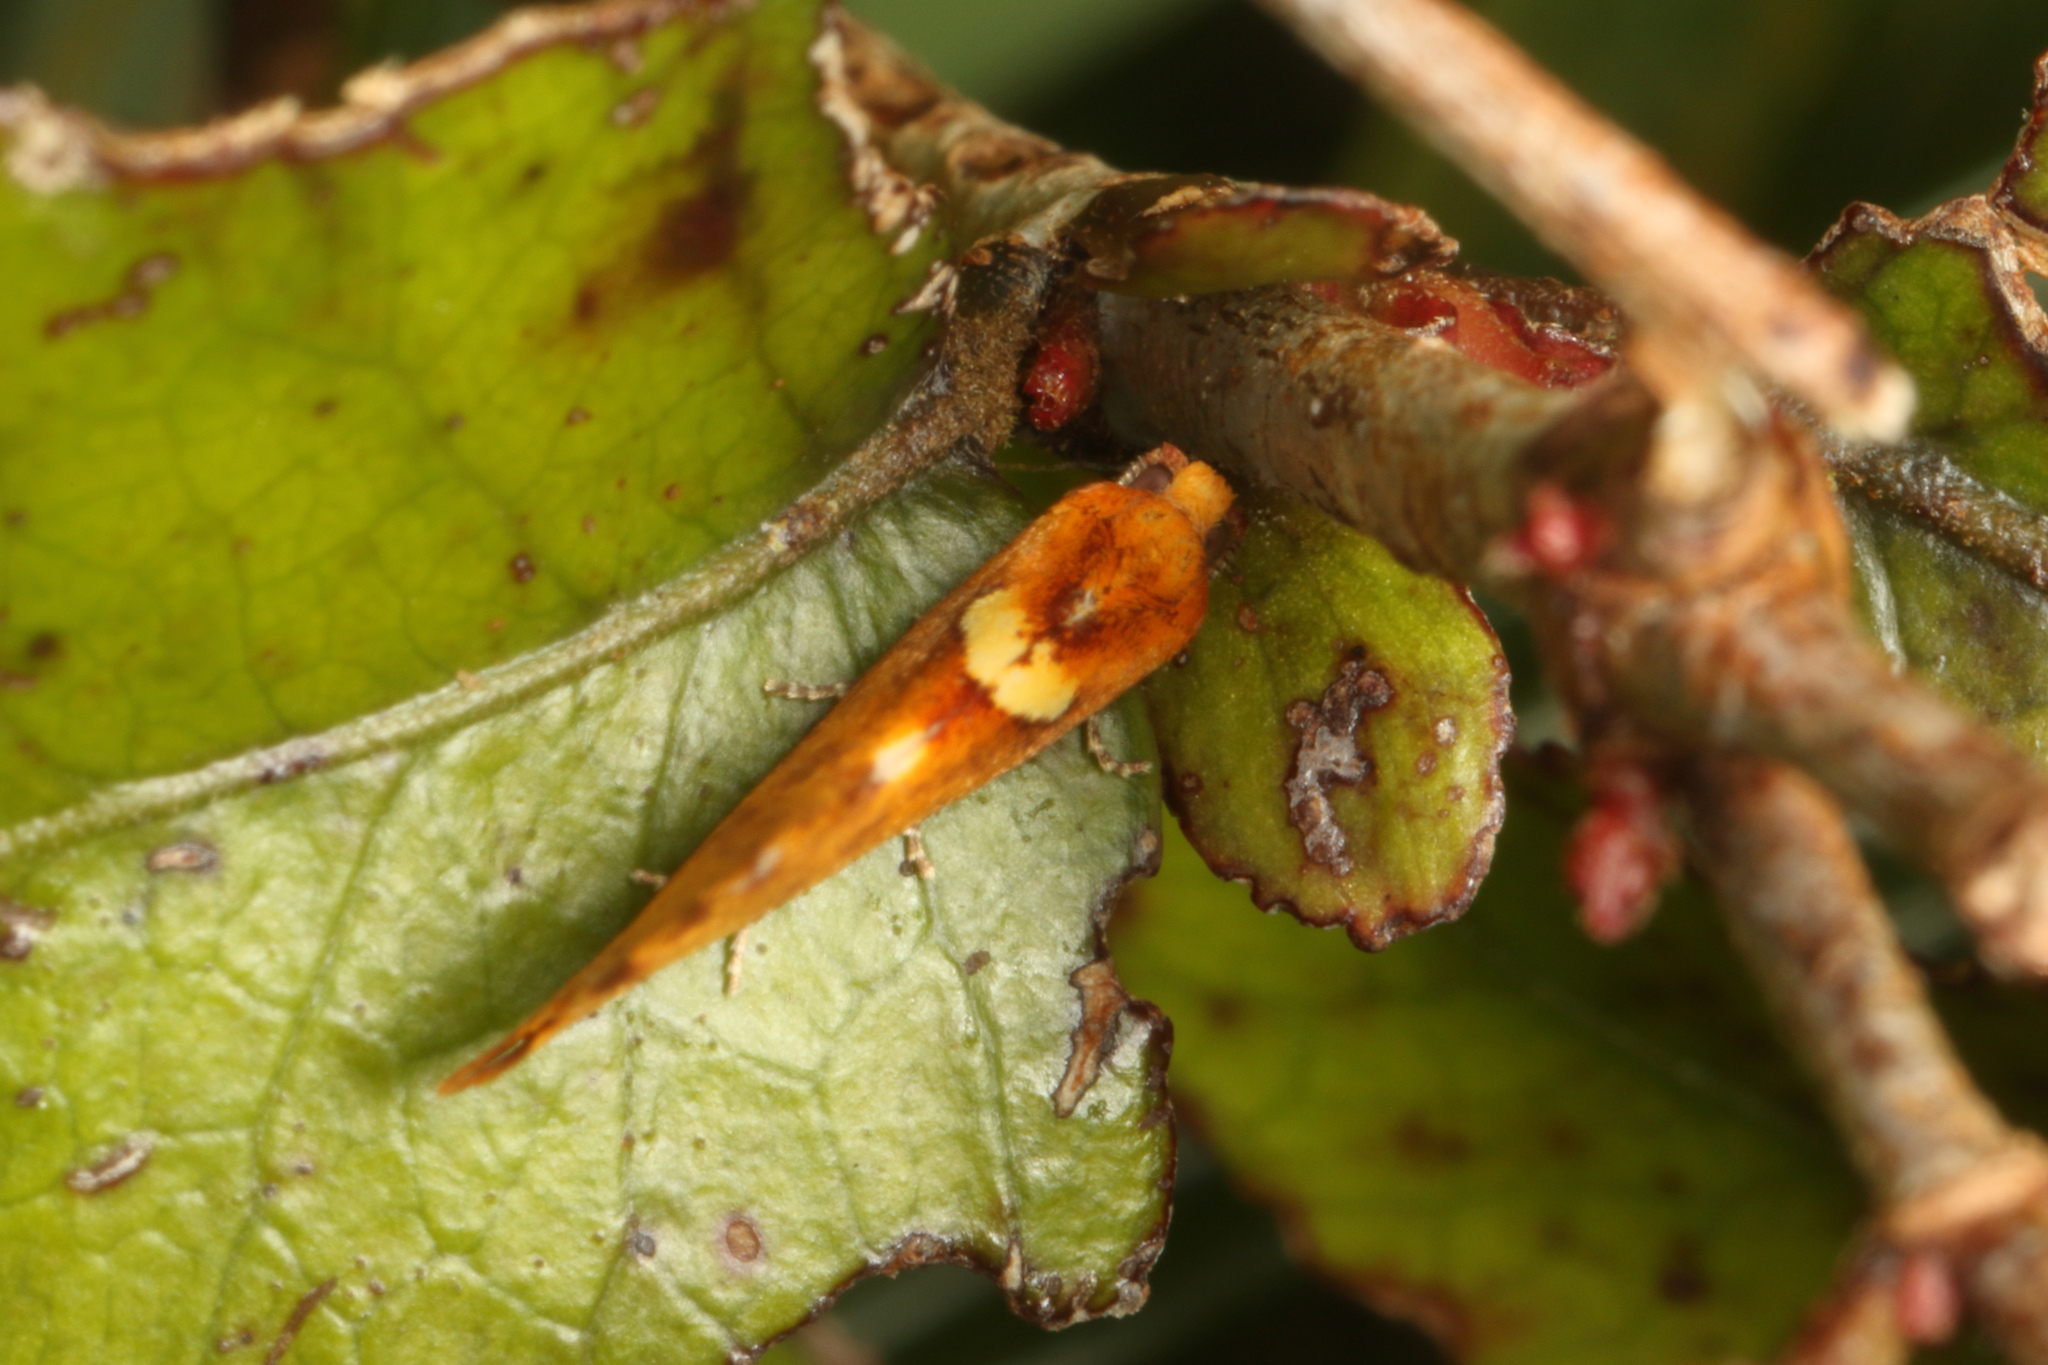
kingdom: Animalia
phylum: Arthropoda
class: Insecta
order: Lepidoptera
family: Tortricidae
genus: Pyrgotis
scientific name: Pyrgotis pyramidias
